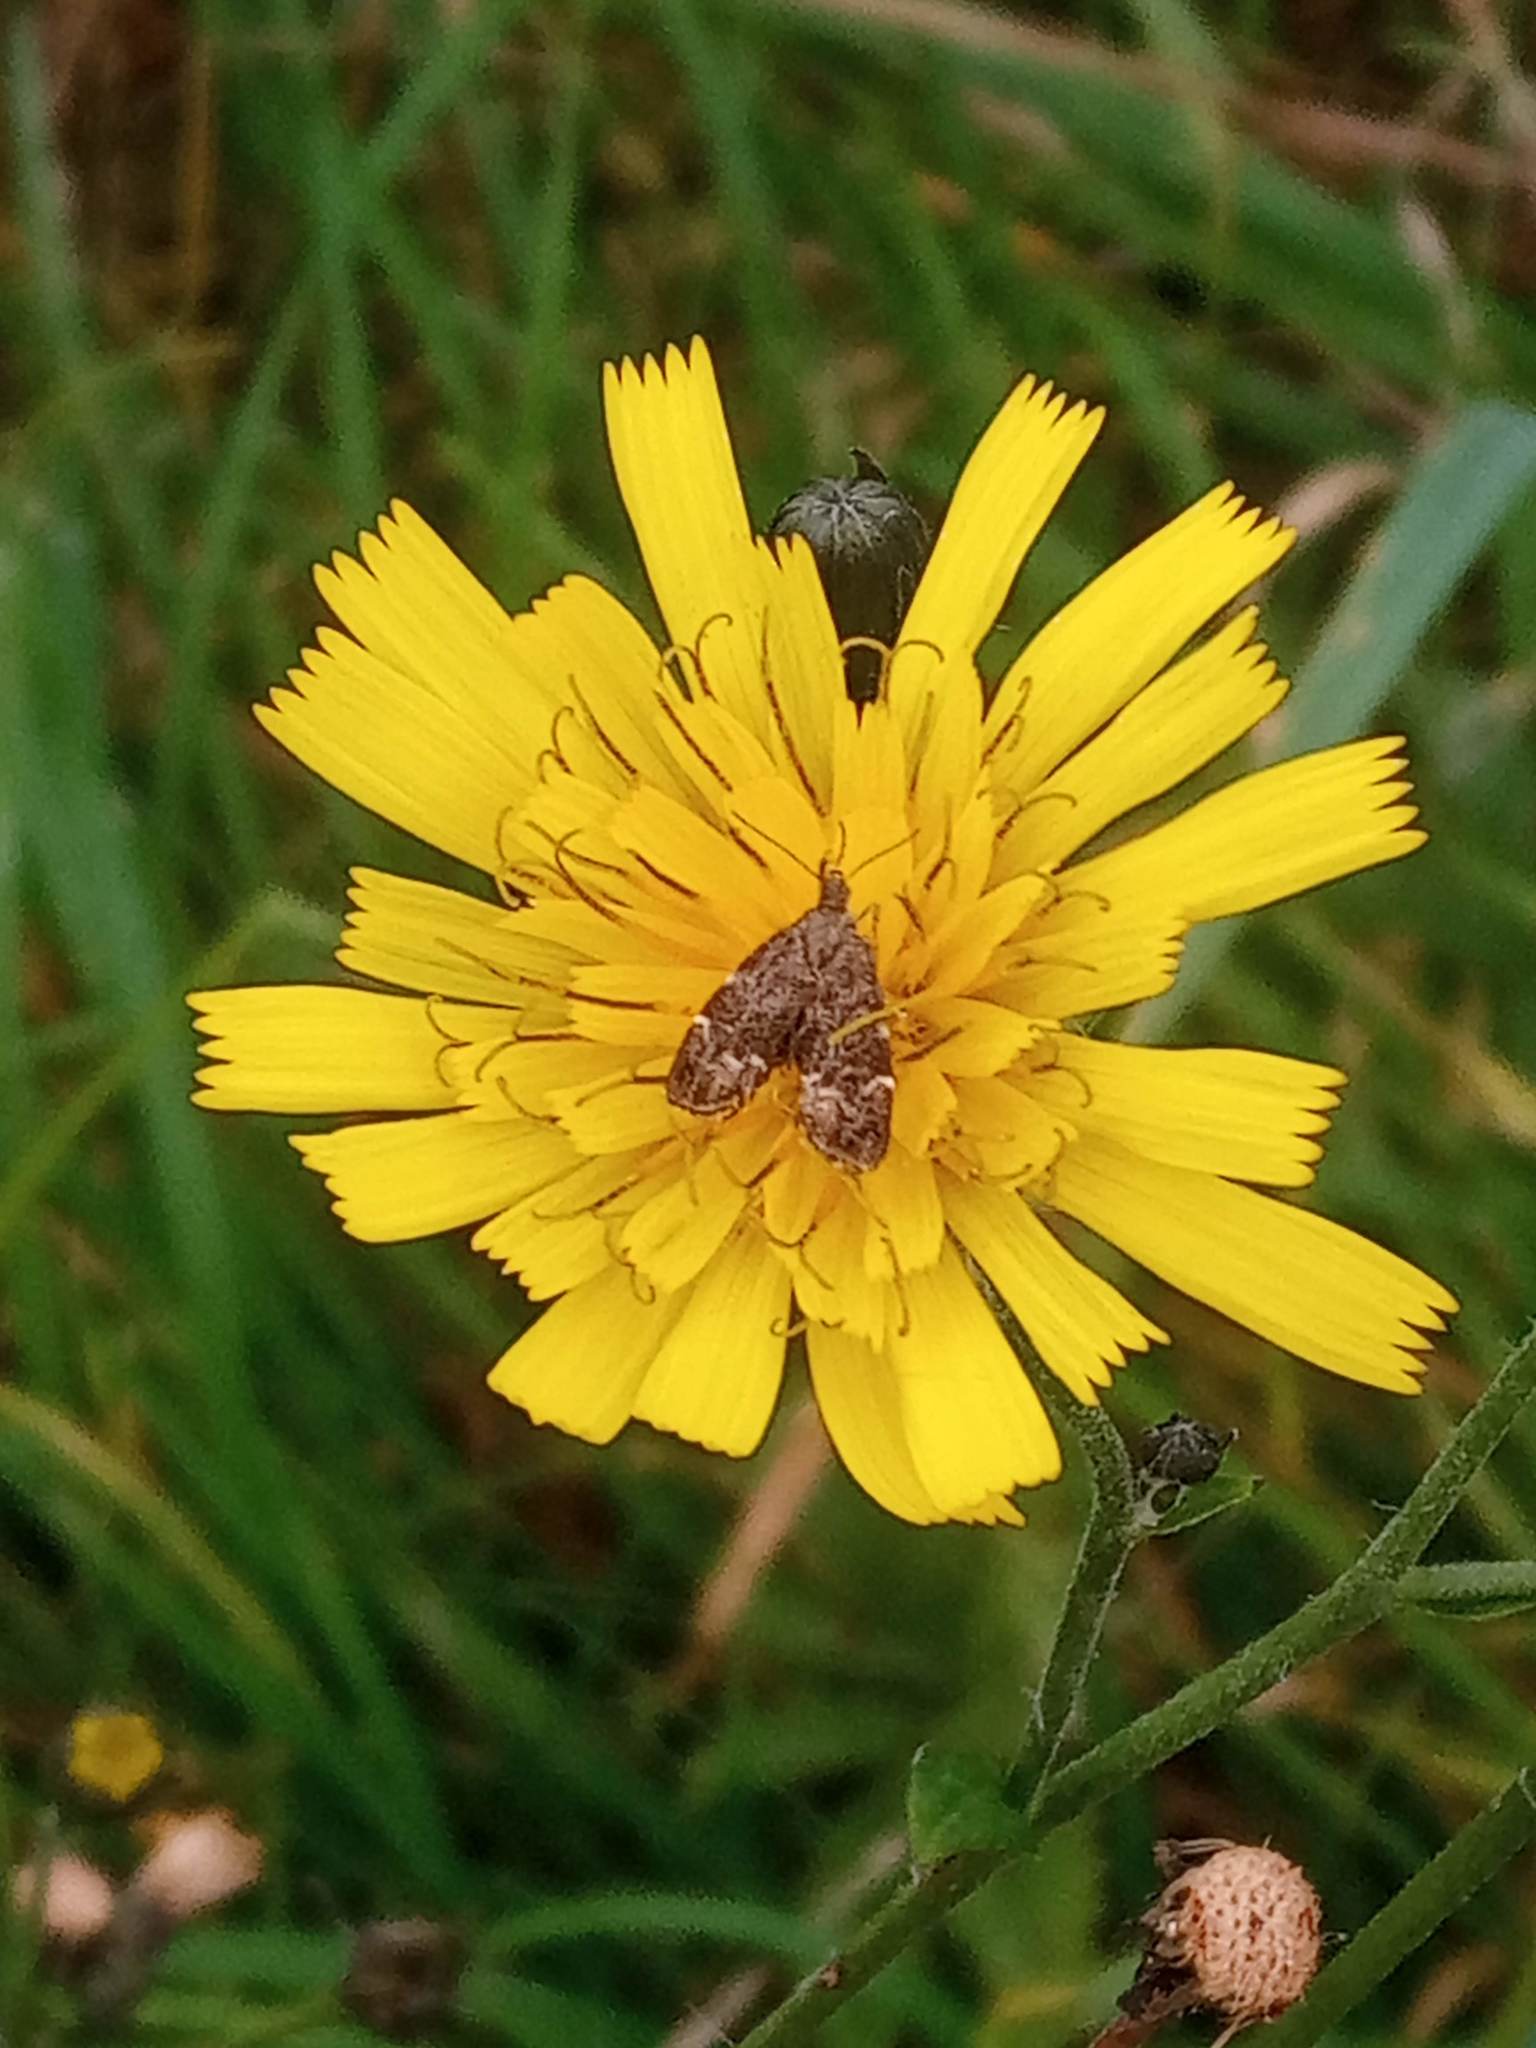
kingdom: Animalia
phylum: Arthropoda
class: Insecta
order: Lepidoptera
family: Choreutidae
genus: Anthophila
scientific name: Anthophila fabriciana
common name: Nettle-tap
